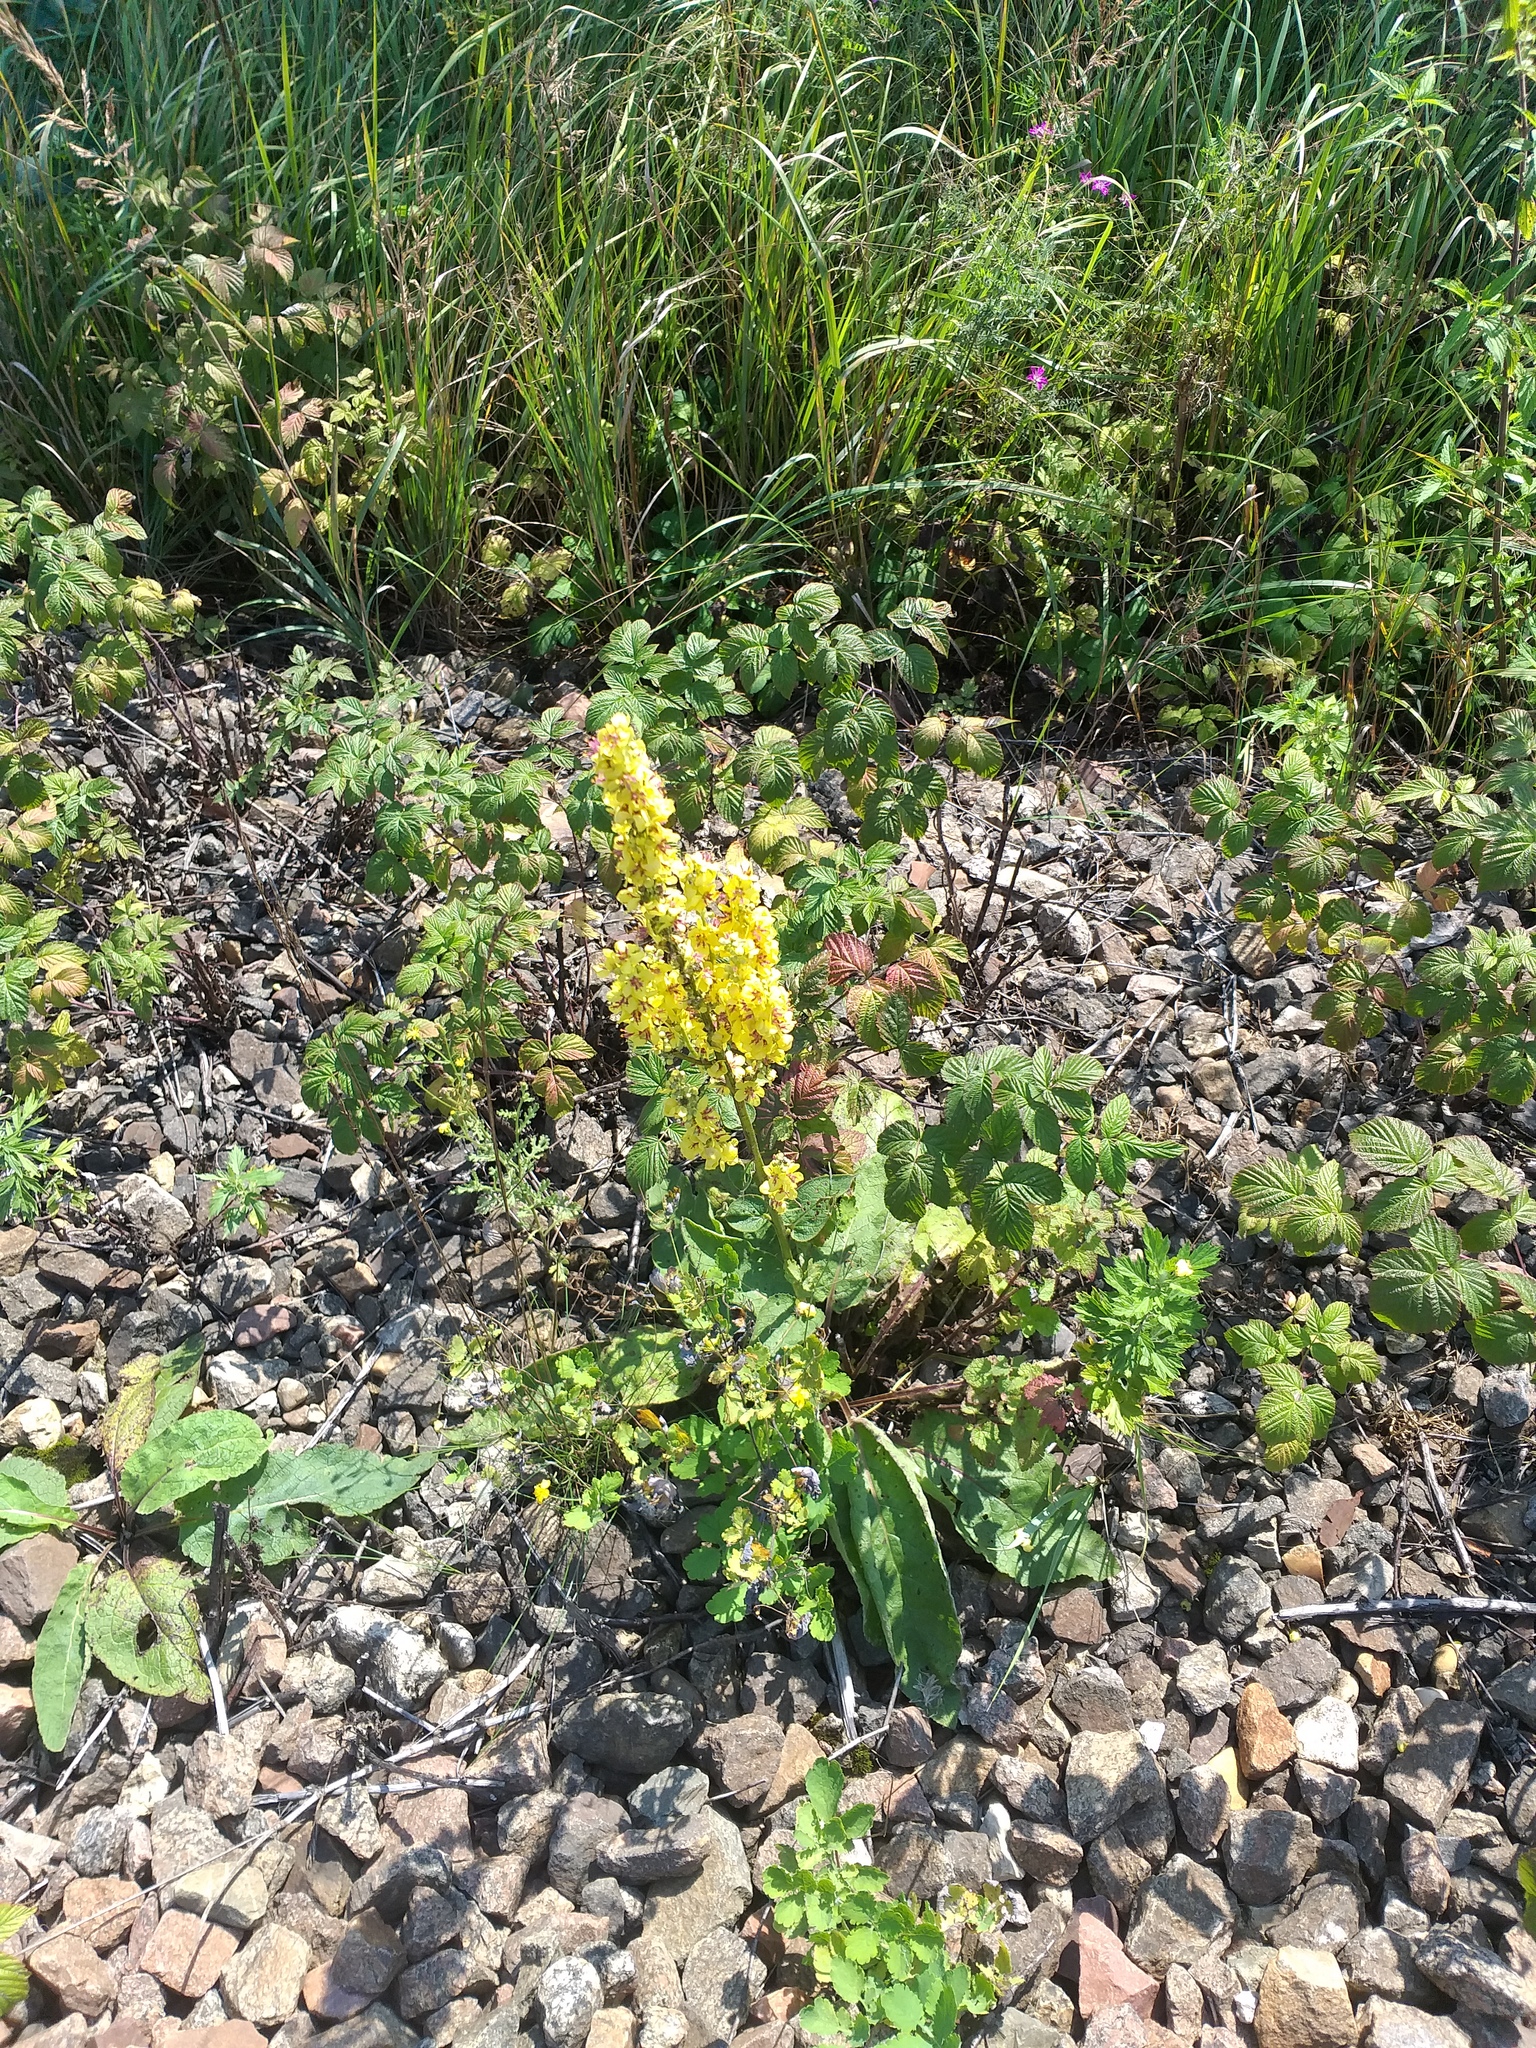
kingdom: Plantae
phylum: Tracheophyta
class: Magnoliopsida
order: Lamiales
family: Scrophulariaceae
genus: Verbascum
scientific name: Verbascum nigrum
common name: Dark mullein
